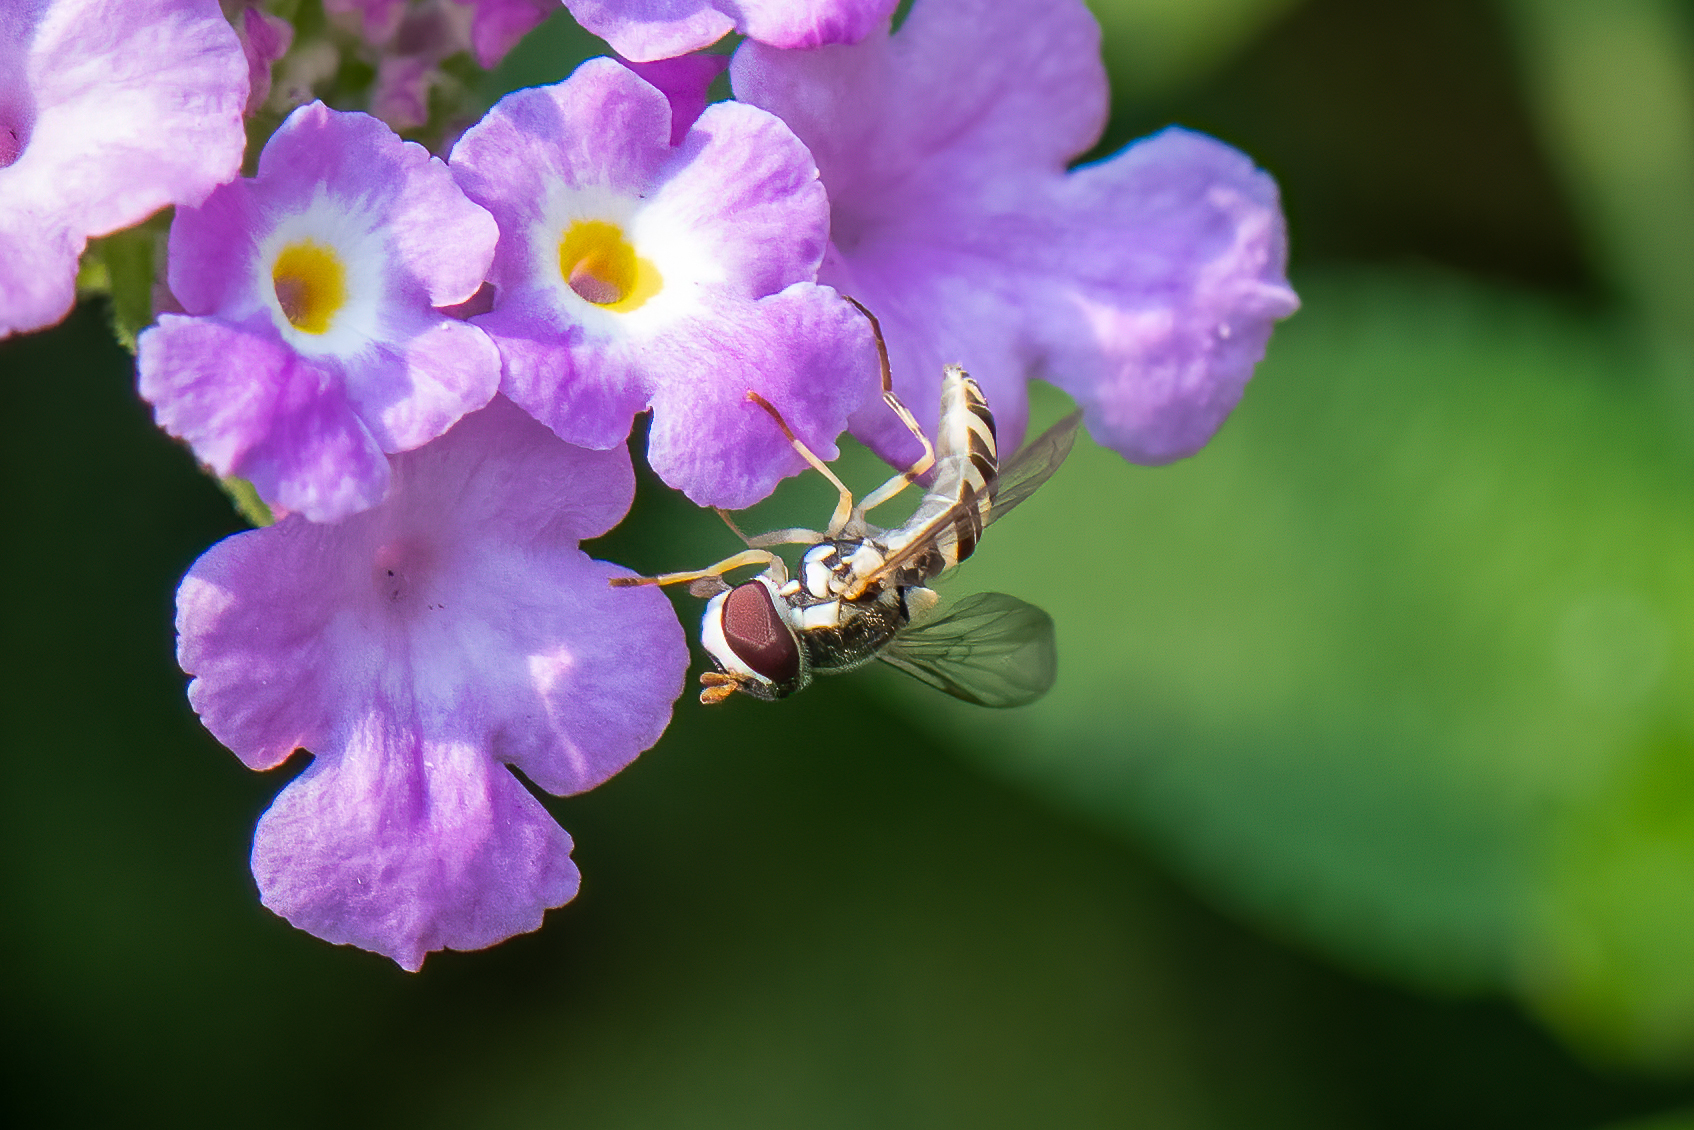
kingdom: Animalia
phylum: Arthropoda
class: Insecta
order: Diptera
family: Syrphidae
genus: Allograpta
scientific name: Allograpta exotica
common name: Syrphid fly
